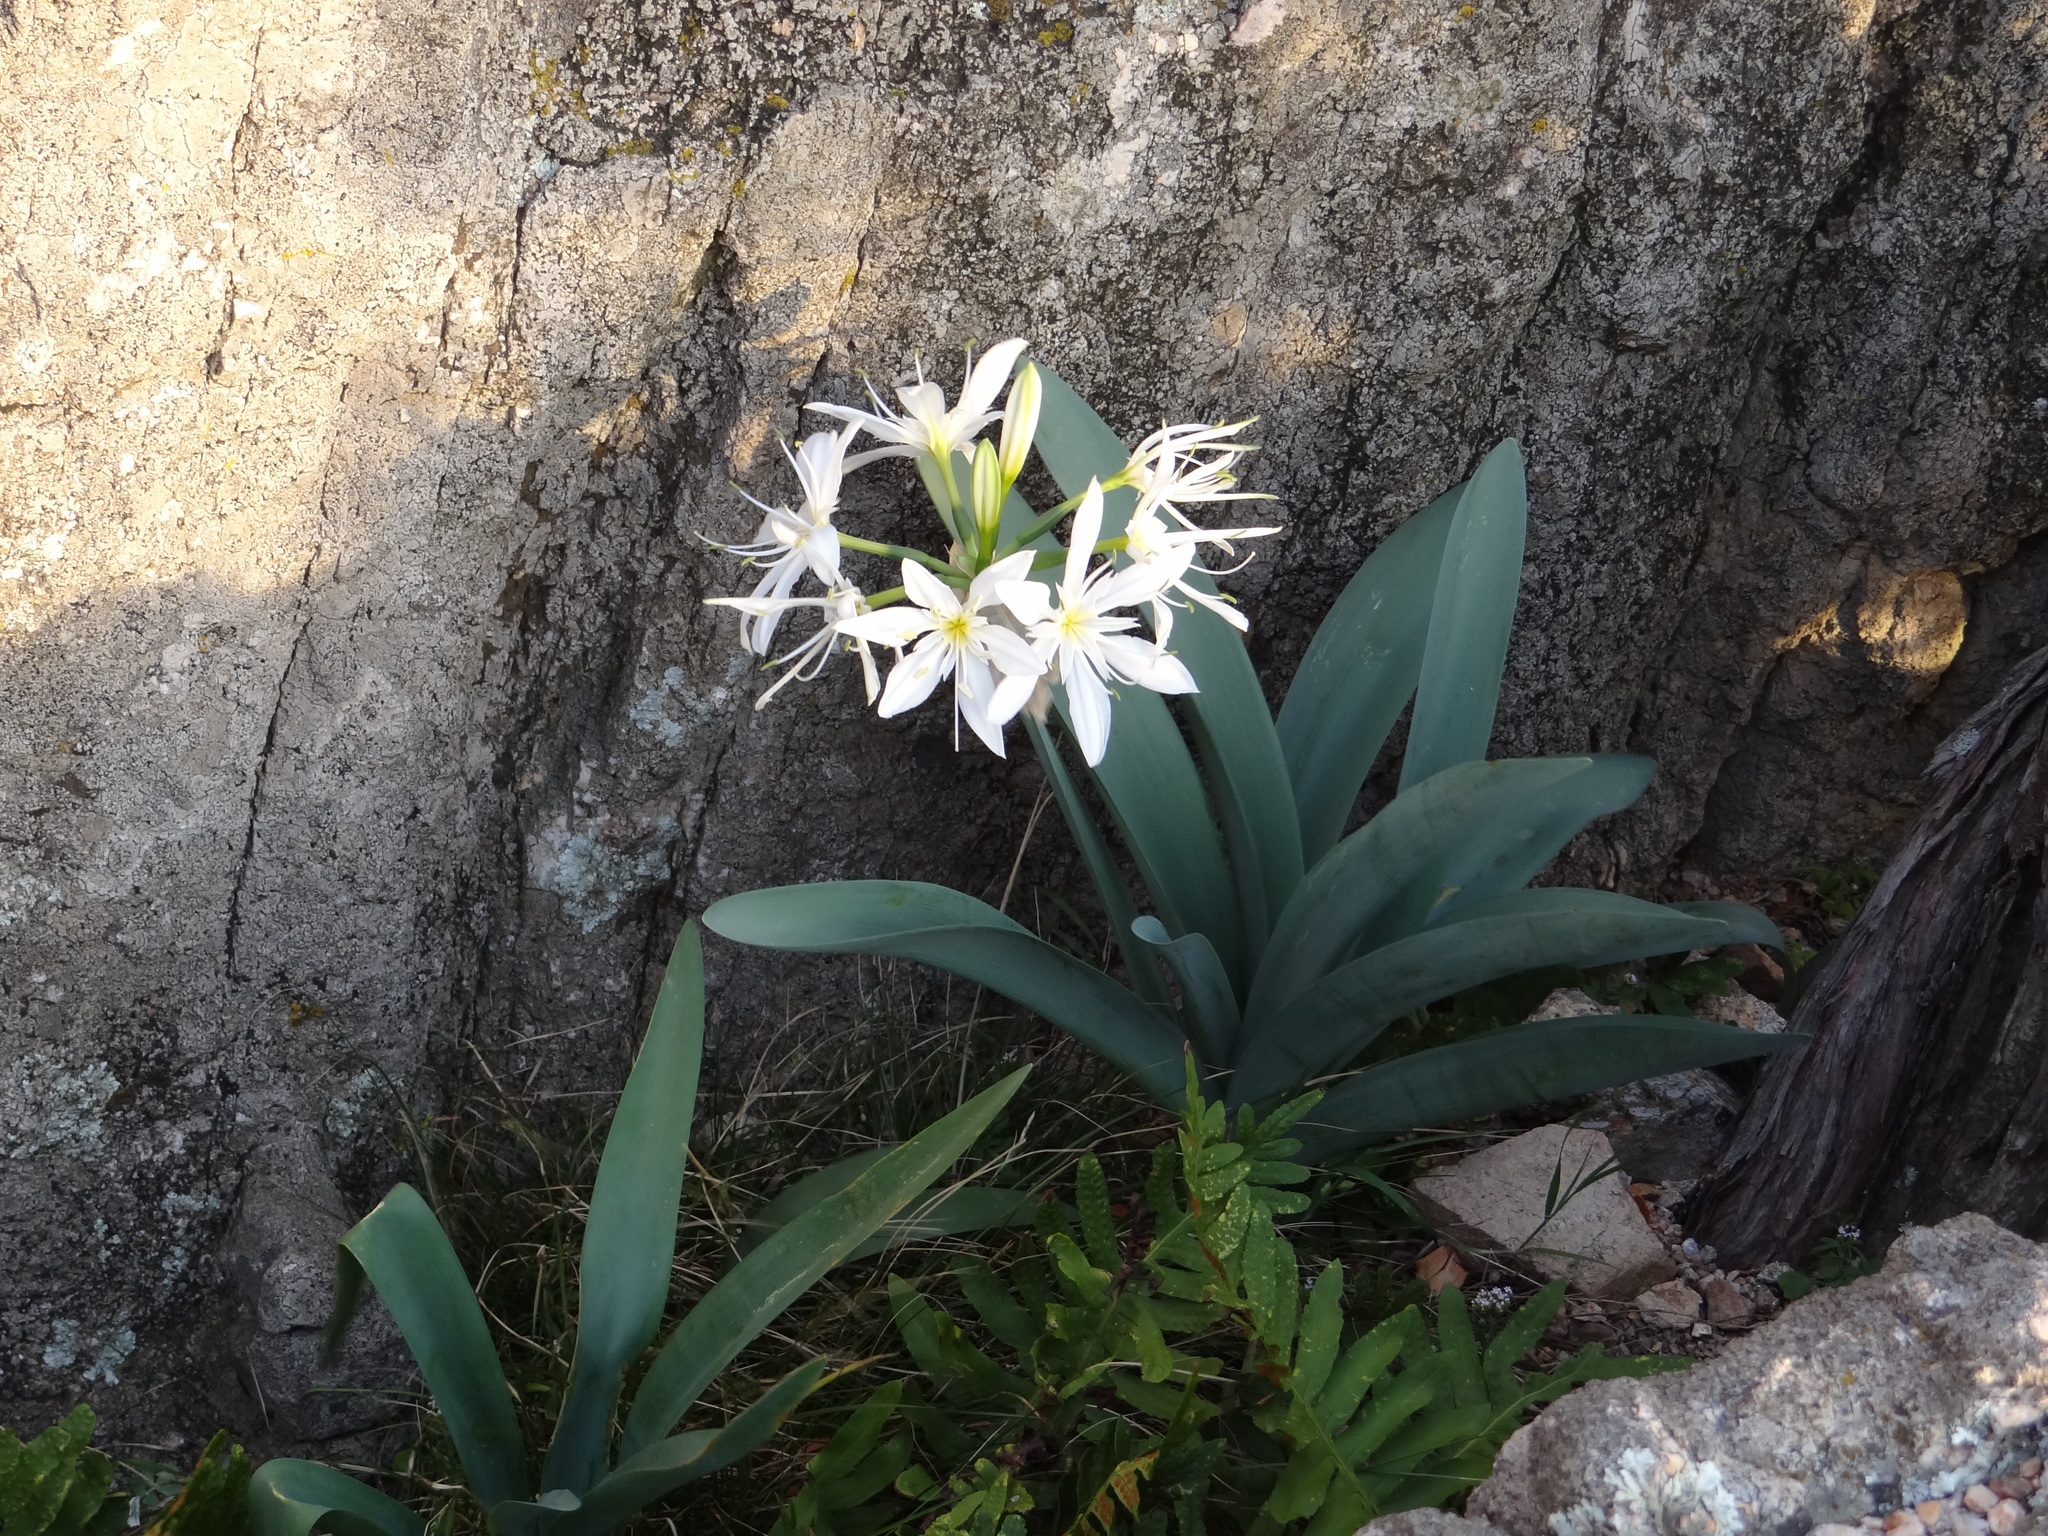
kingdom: Plantae
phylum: Tracheophyta
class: Liliopsida
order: Asparagales
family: Amaryllidaceae
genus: Pancratium
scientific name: Pancratium illyricum
